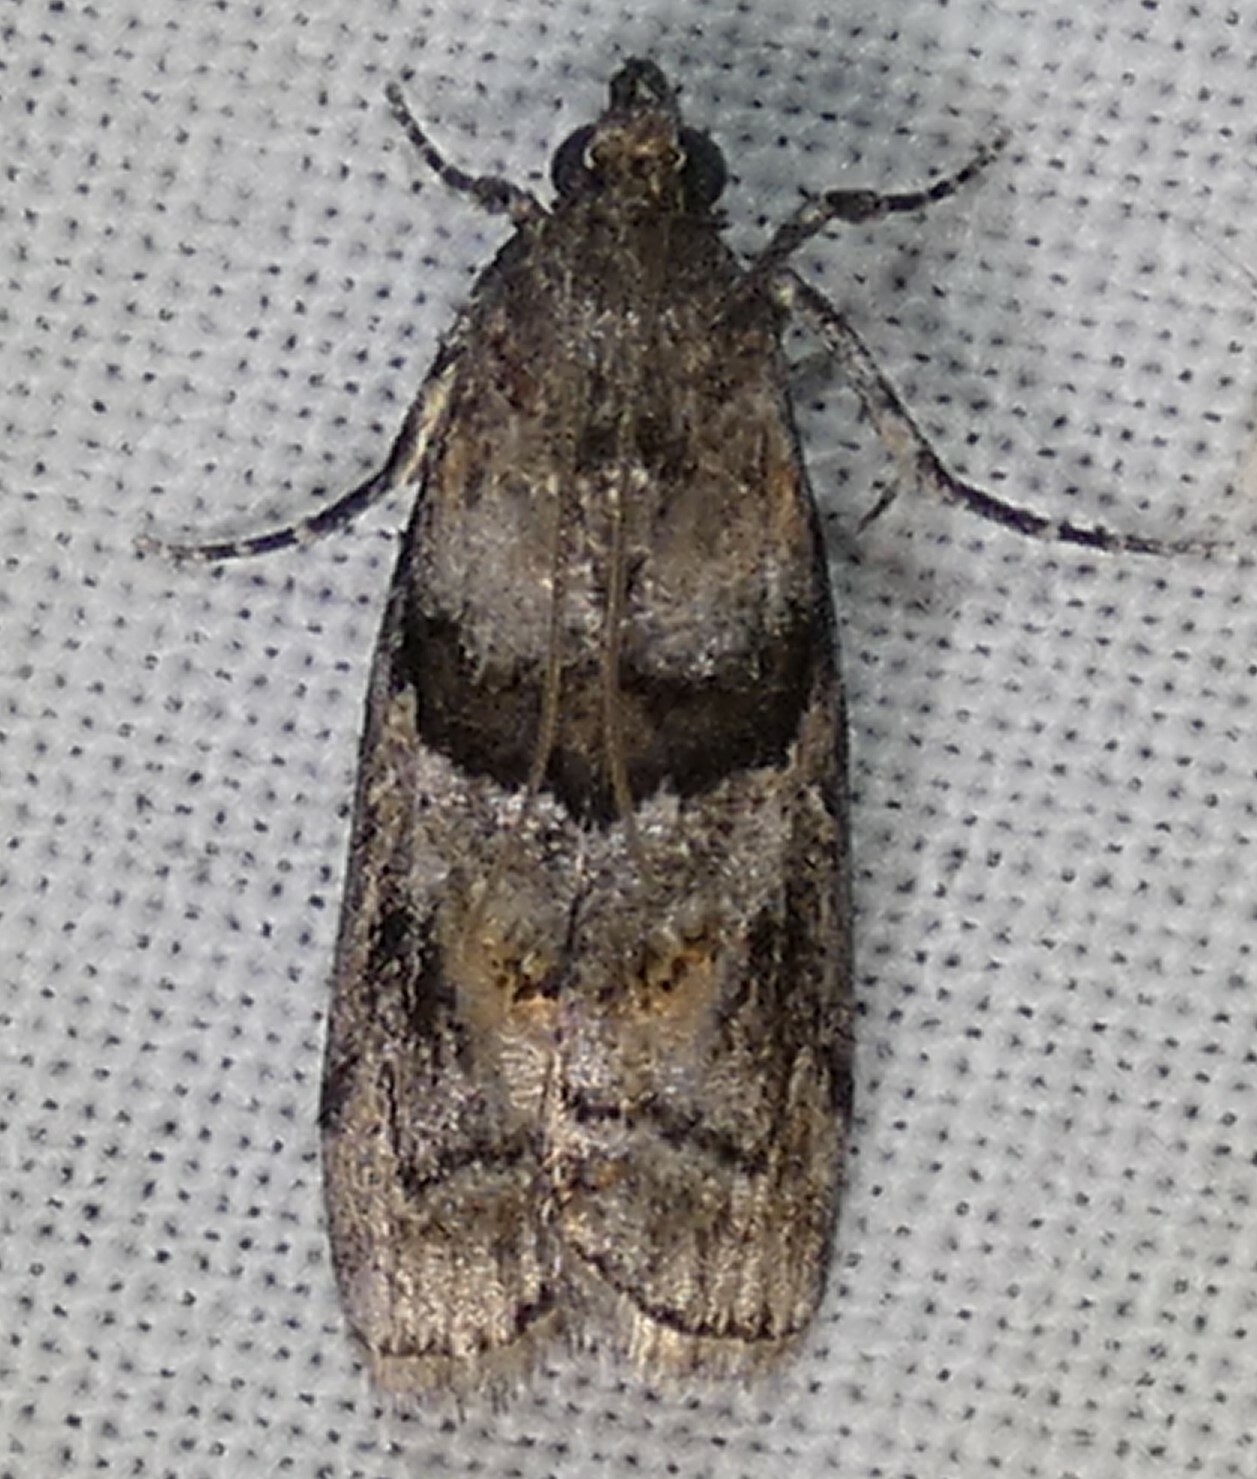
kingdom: Animalia
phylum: Arthropoda
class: Insecta
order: Lepidoptera
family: Pyralidae
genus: Dioryctria
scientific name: Dioryctria clarioralis
